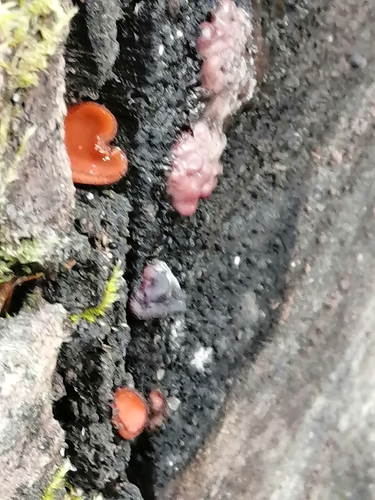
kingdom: Fungi
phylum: Ascomycota
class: Pezizomycetes
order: Pezizales
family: Pyronemataceae
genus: Scutellinia
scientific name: Scutellinia
